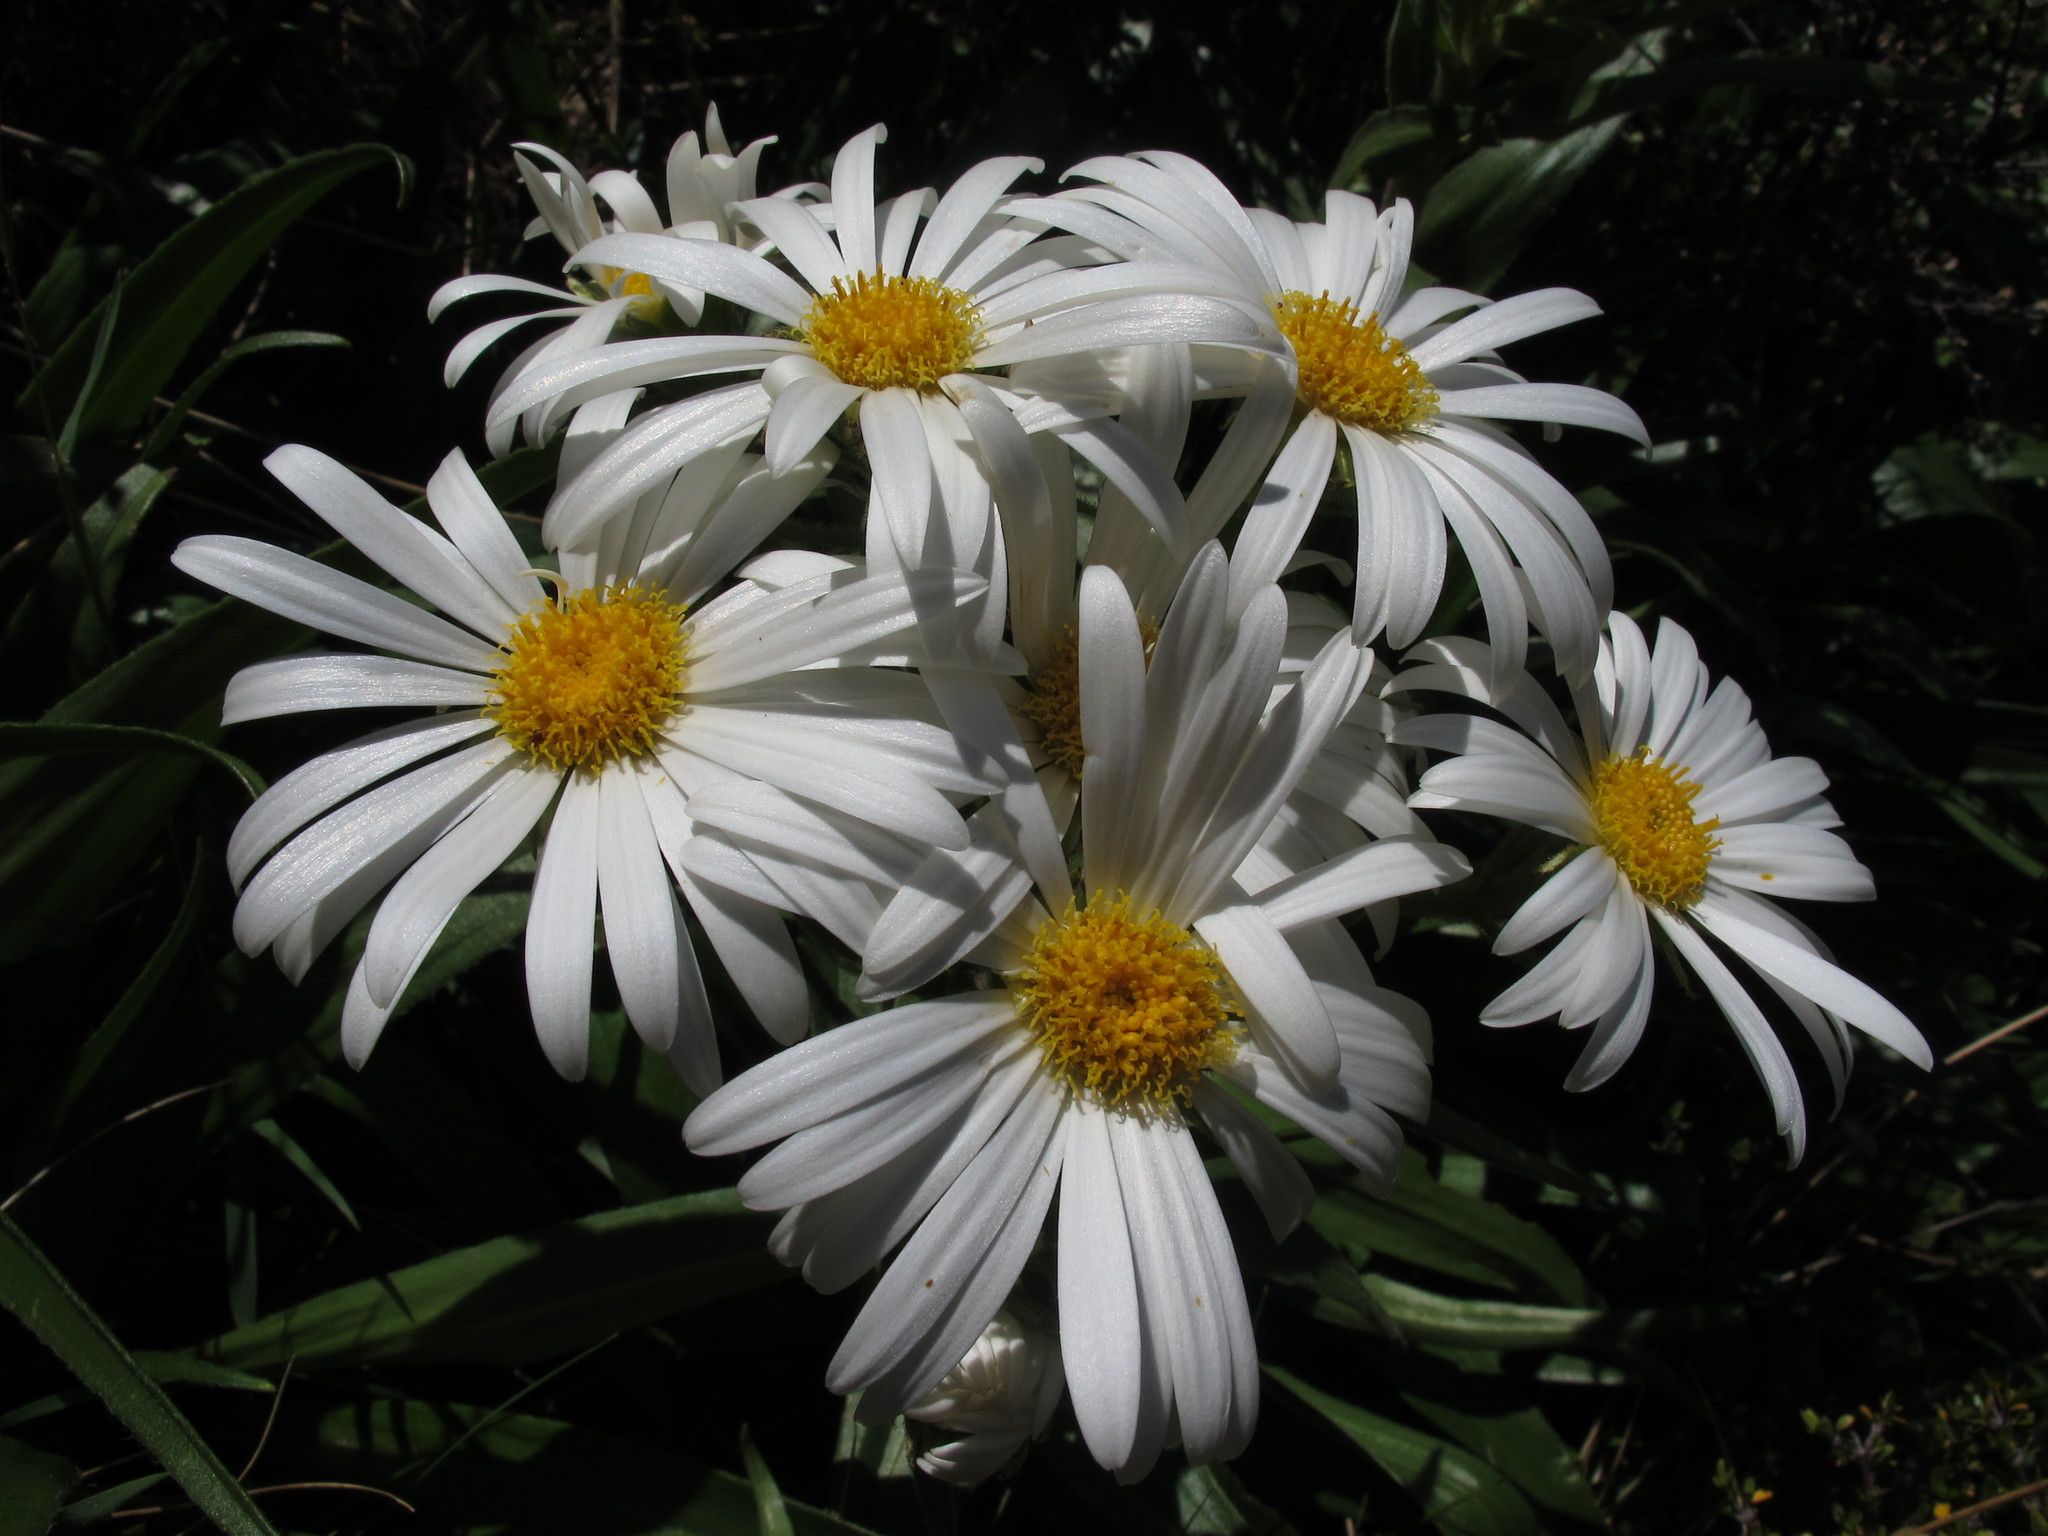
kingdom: Plantae
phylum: Tracheophyta
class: Magnoliopsida
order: Asterales
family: Asteraceae
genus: Dolichoglottis
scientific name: Dolichoglottis scorzoneroides
